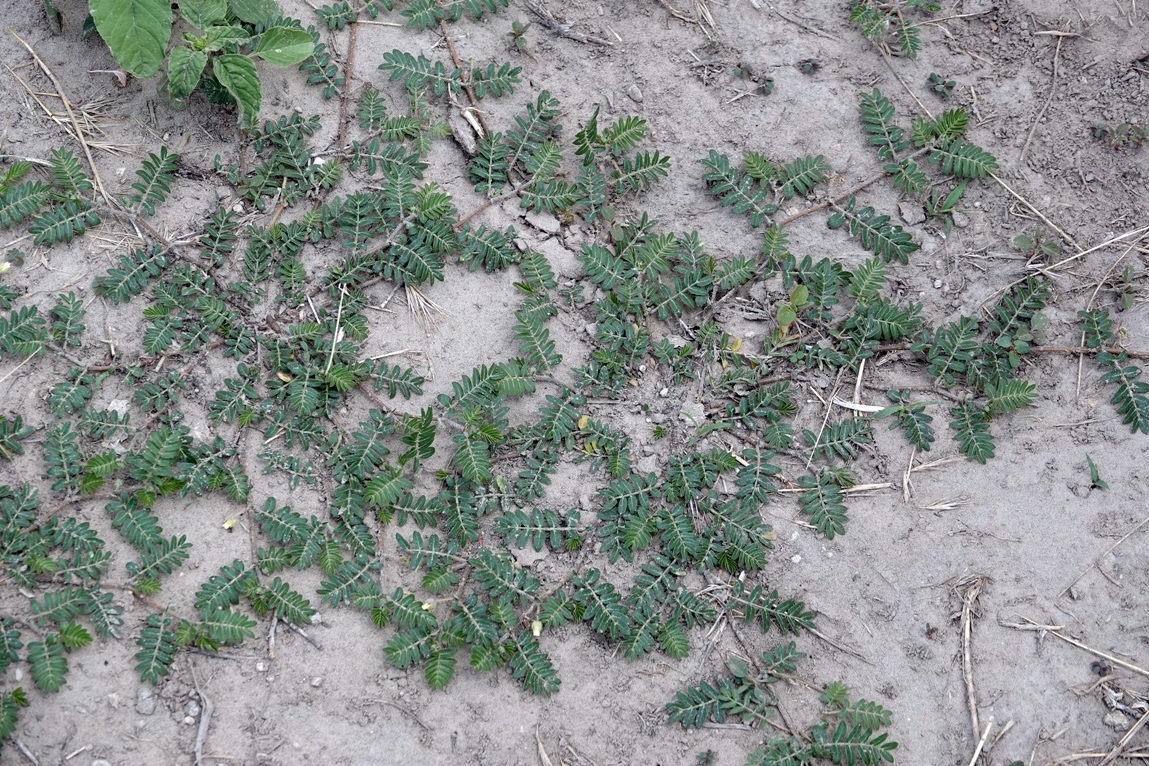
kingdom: Plantae
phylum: Tracheophyta
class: Magnoliopsida
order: Zygophyllales
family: Zygophyllaceae
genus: Tribulus
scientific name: Tribulus terrestris
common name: Puncturevine
